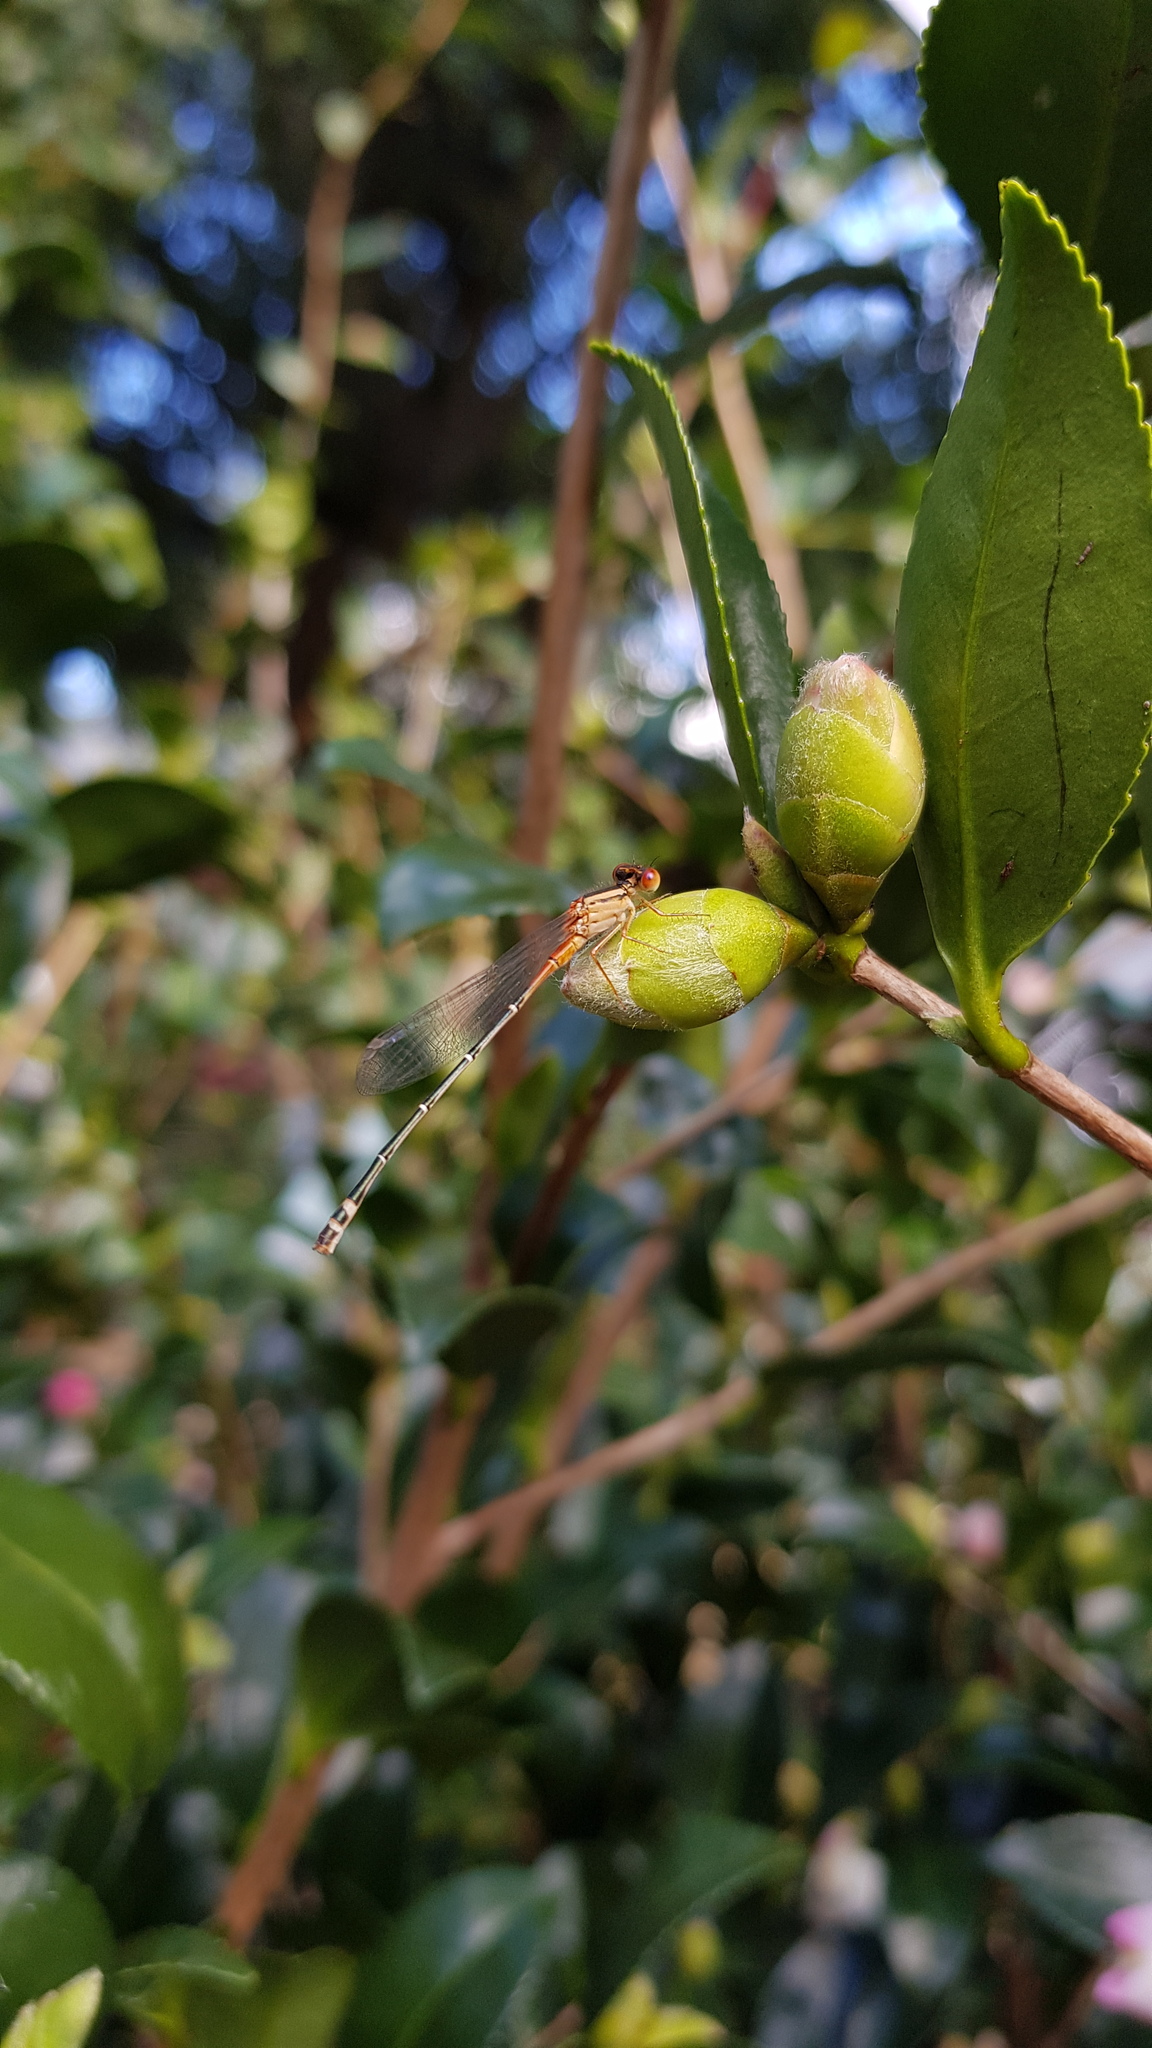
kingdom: Animalia
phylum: Arthropoda
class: Insecta
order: Odonata
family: Coenagrionidae
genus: Xanthagrion
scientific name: Xanthagrion erythroneurum
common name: Red and blue damsel
